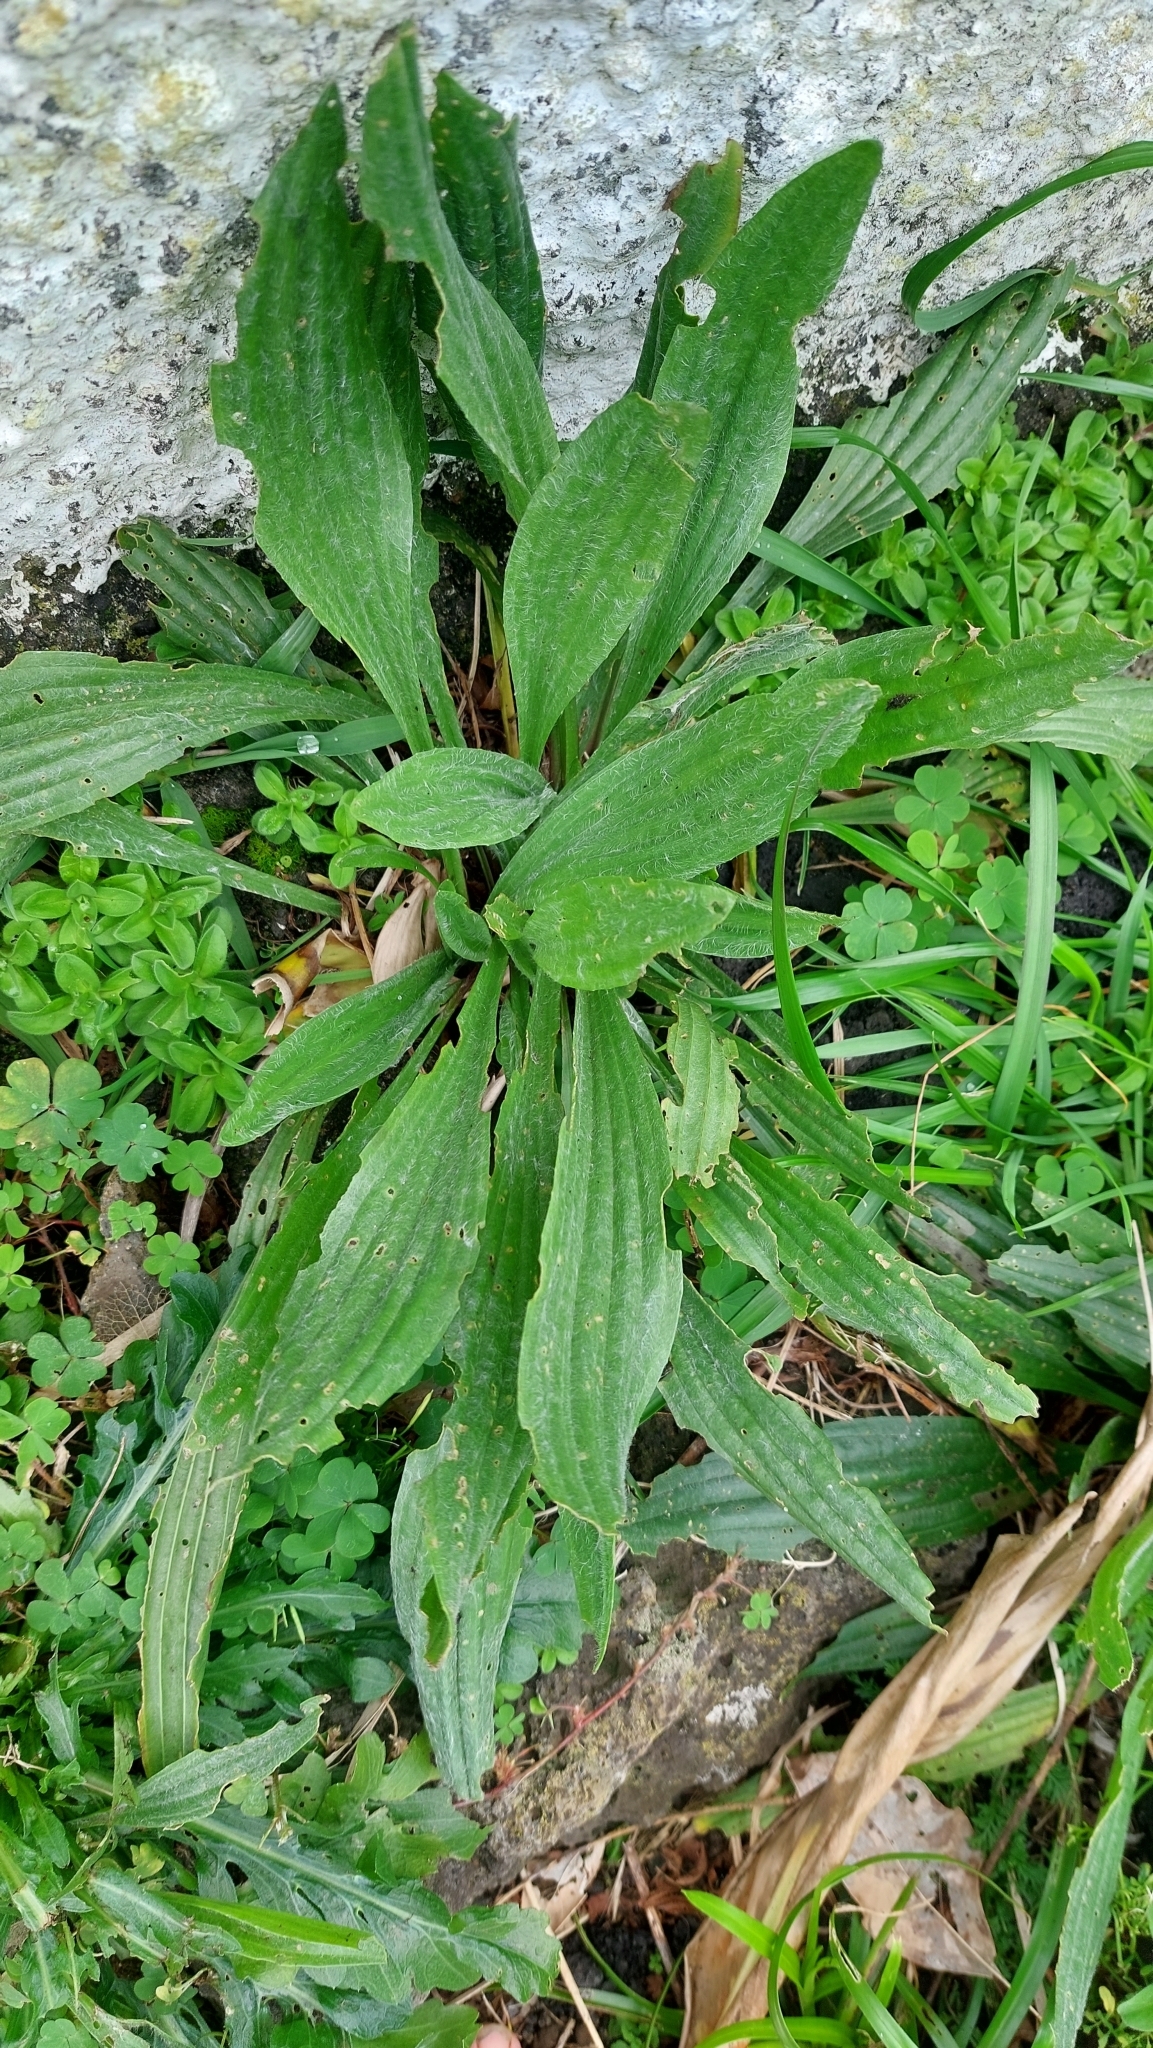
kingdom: Plantae
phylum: Tracheophyta
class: Magnoliopsida
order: Lamiales
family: Plantaginaceae
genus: Plantago
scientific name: Plantago lanceolata
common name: Ribwort plantain
